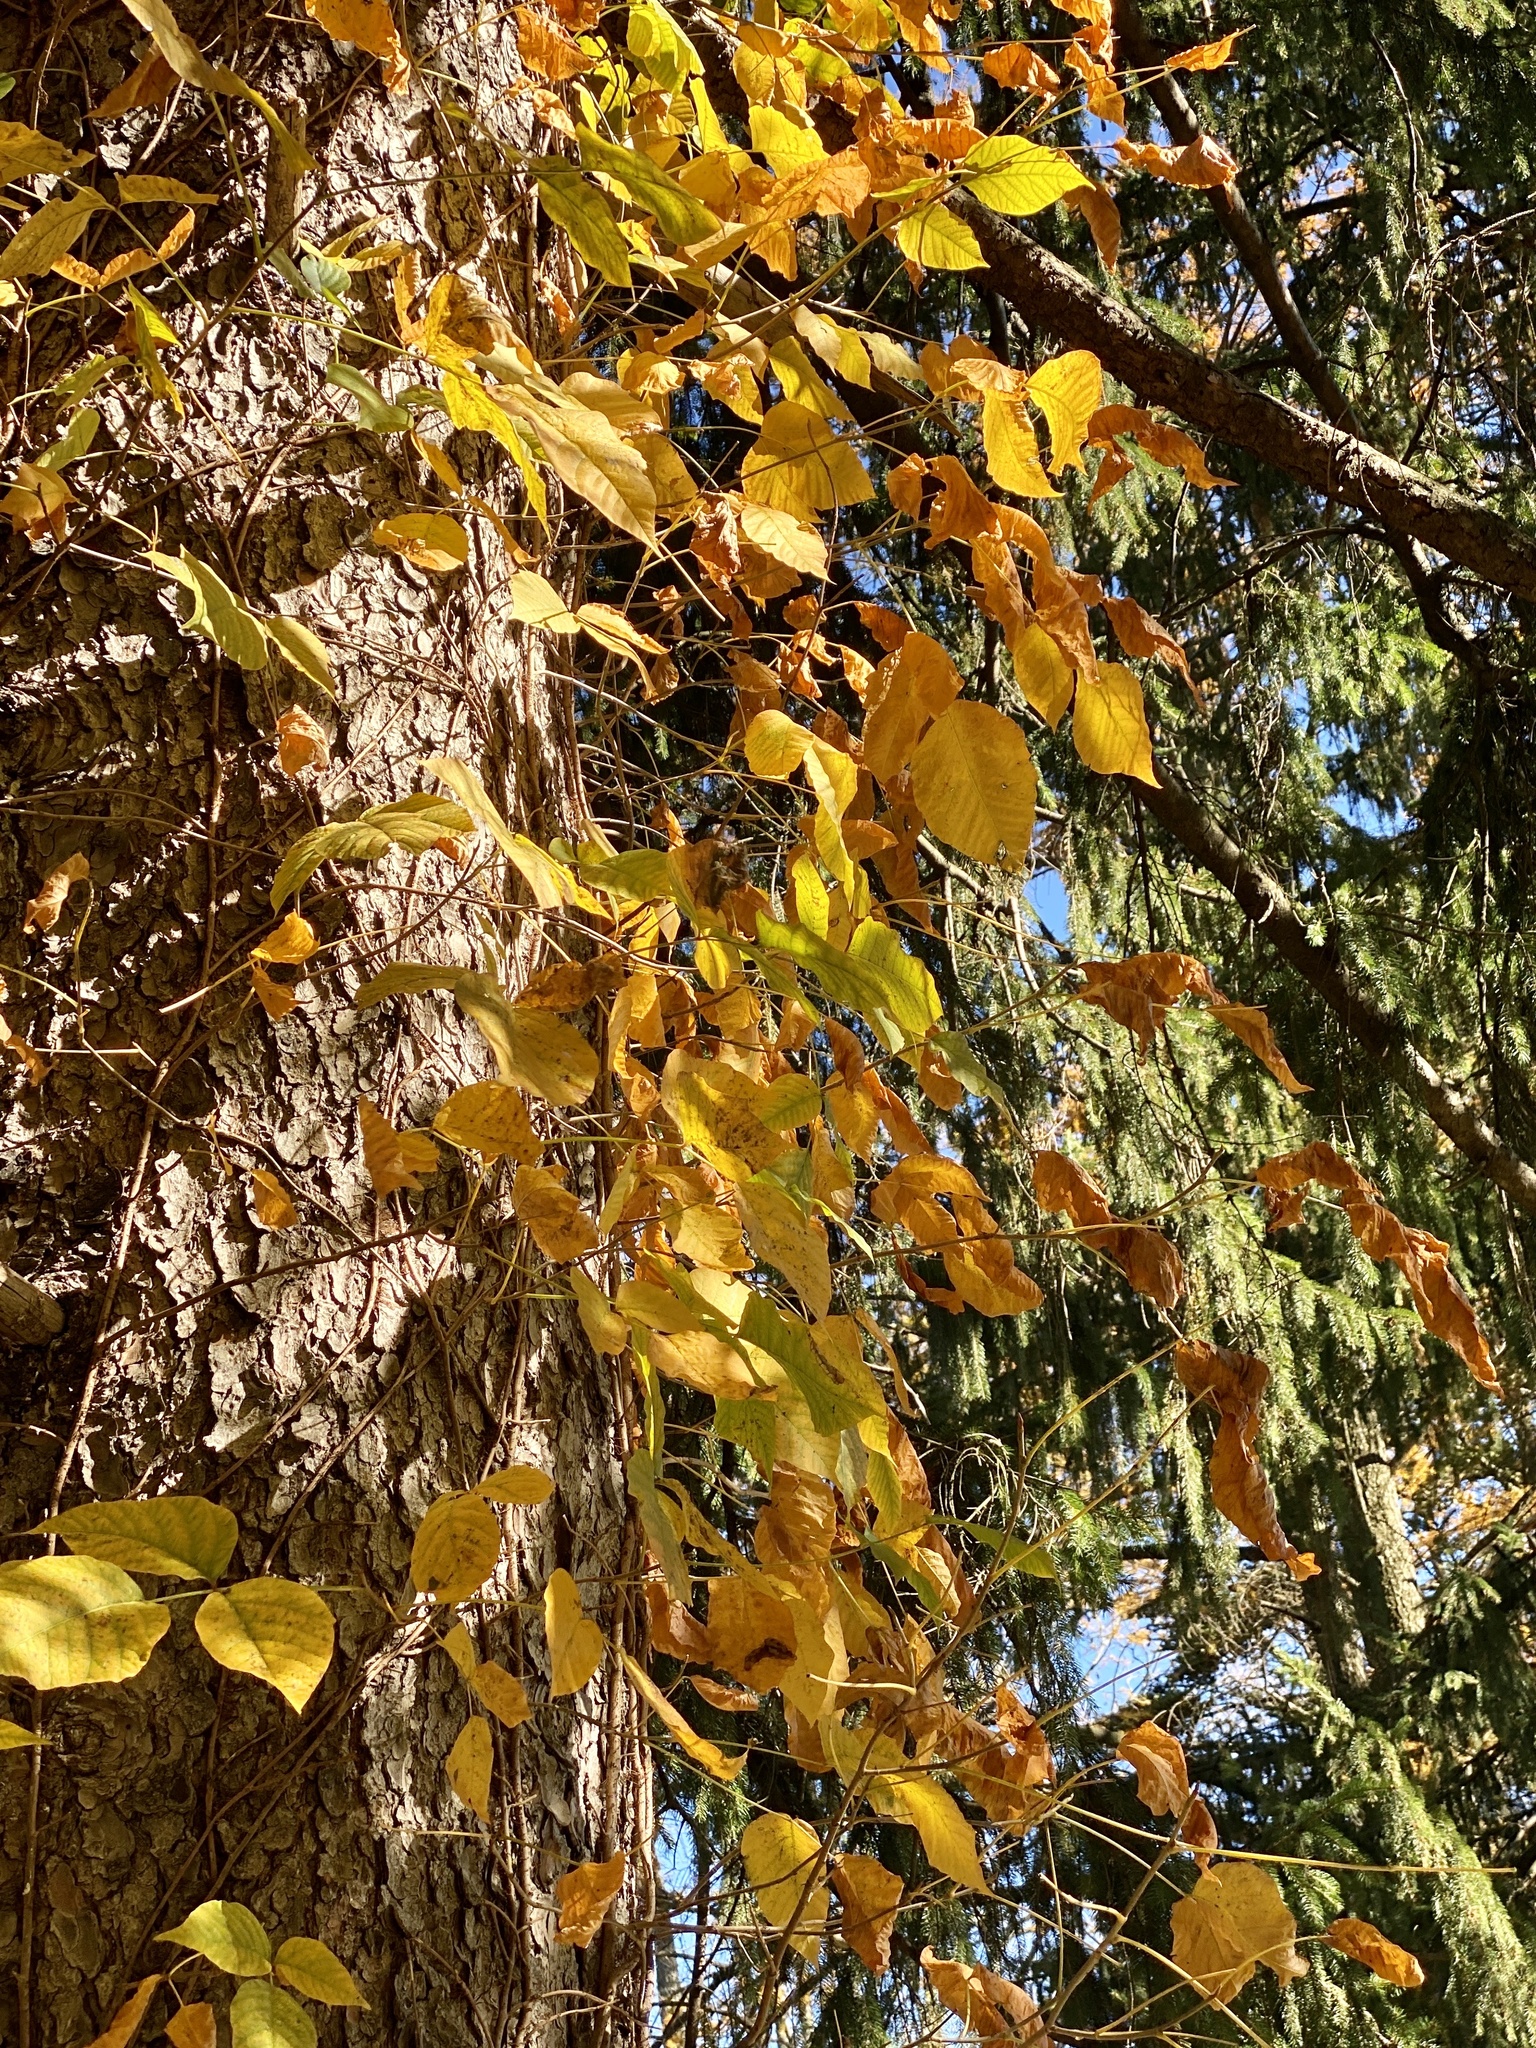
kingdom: Plantae
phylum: Tracheophyta
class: Magnoliopsida
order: Sapindales
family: Anacardiaceae
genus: Toxicodendron
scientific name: Toxicodendron radicans
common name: Poison ivy
